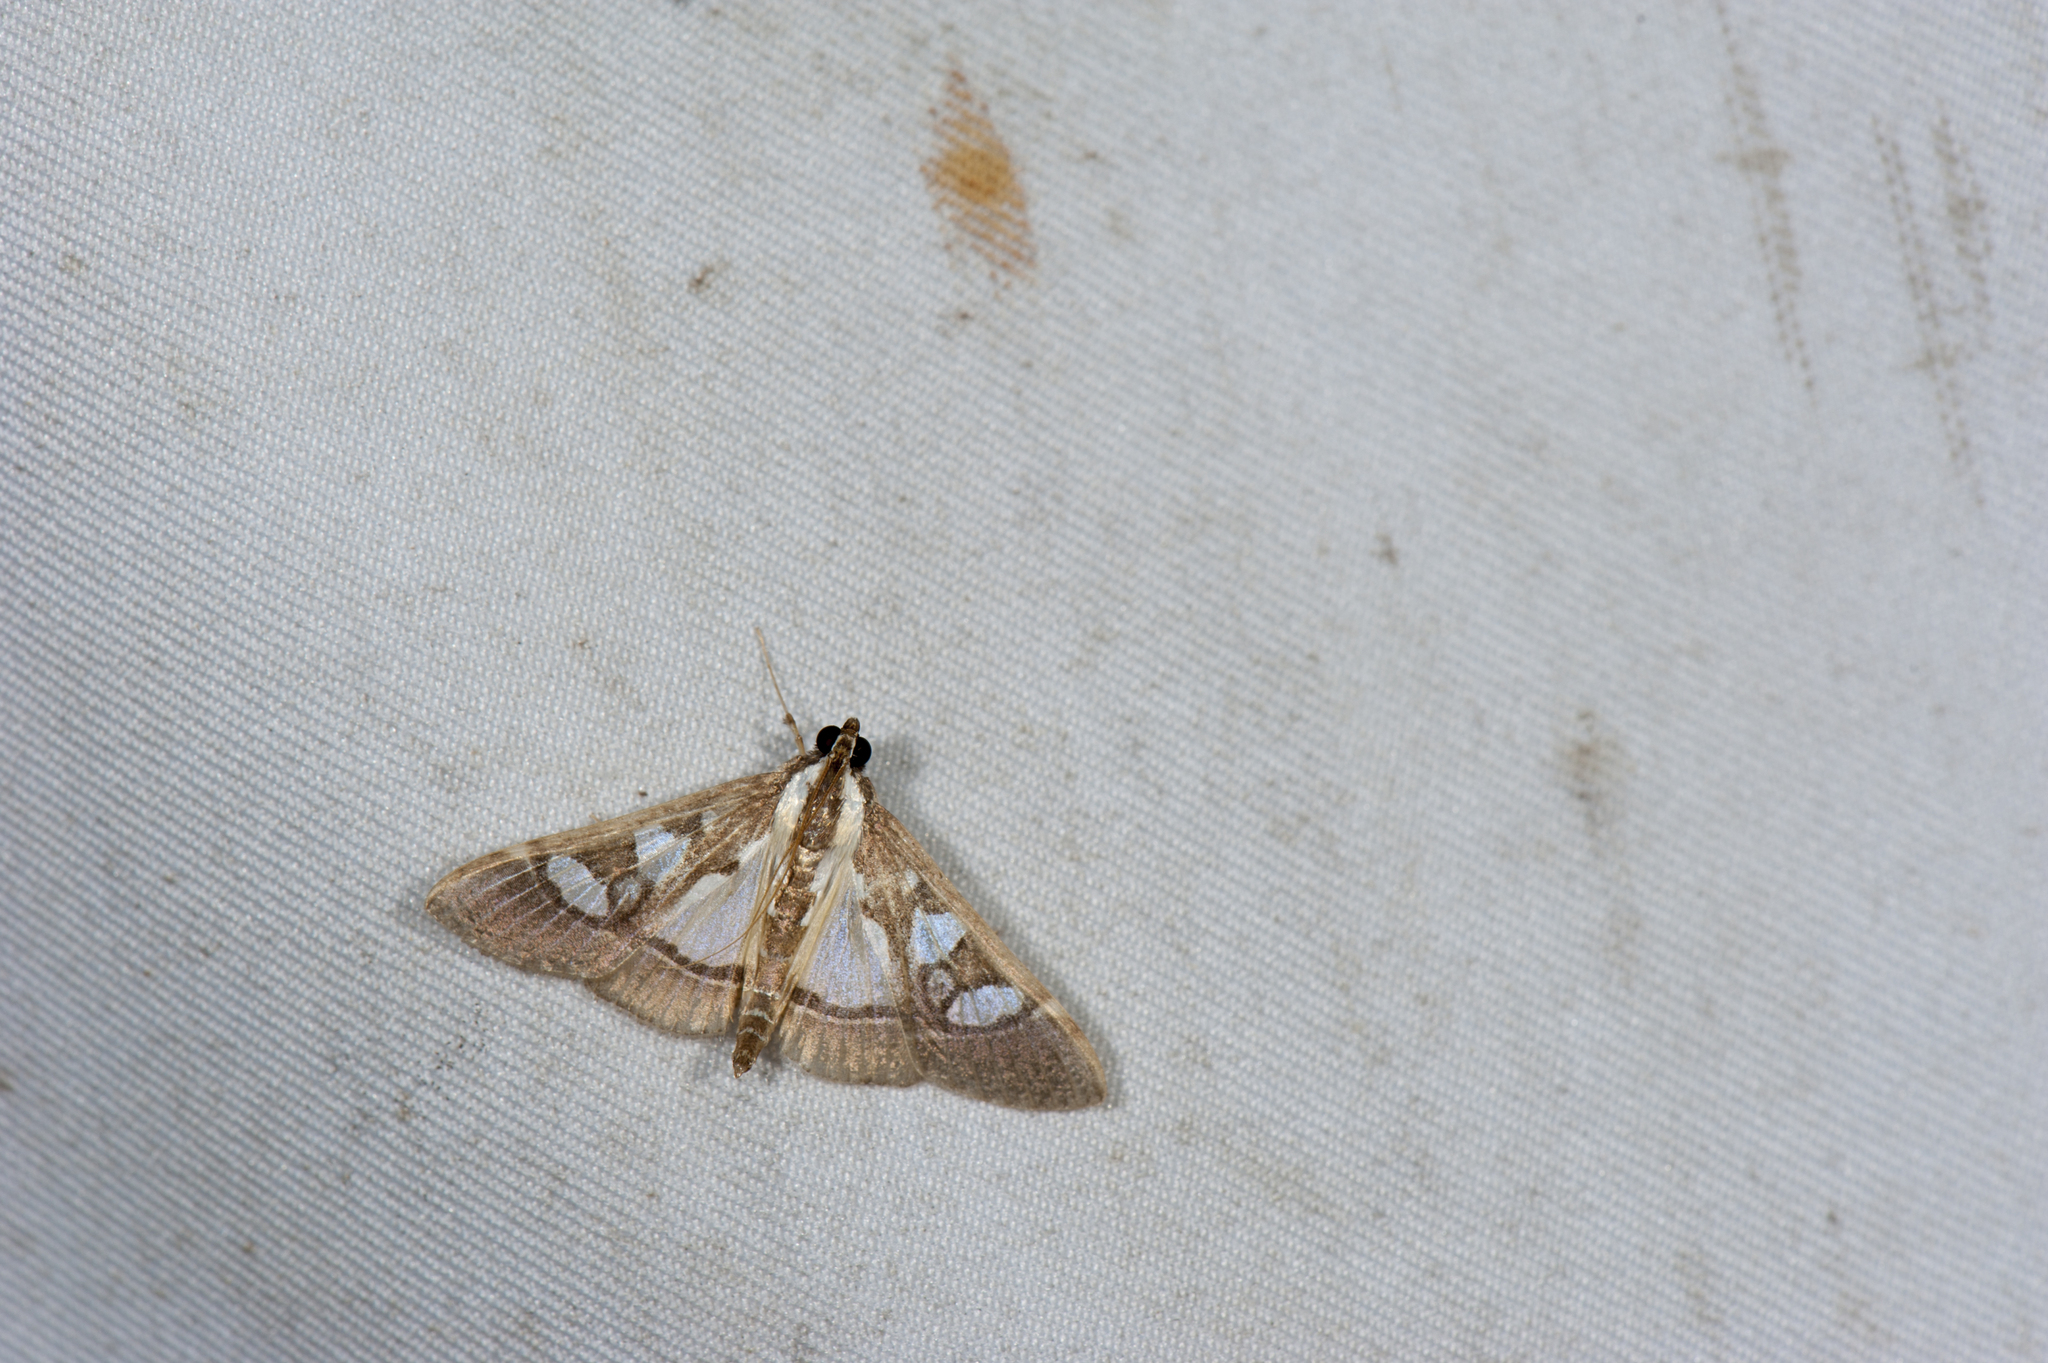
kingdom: Animalia
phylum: Arthropoda
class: Insecta
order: Lepidoptera
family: Crambidae
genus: Glyphodes
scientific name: Glyphodes crithealis
